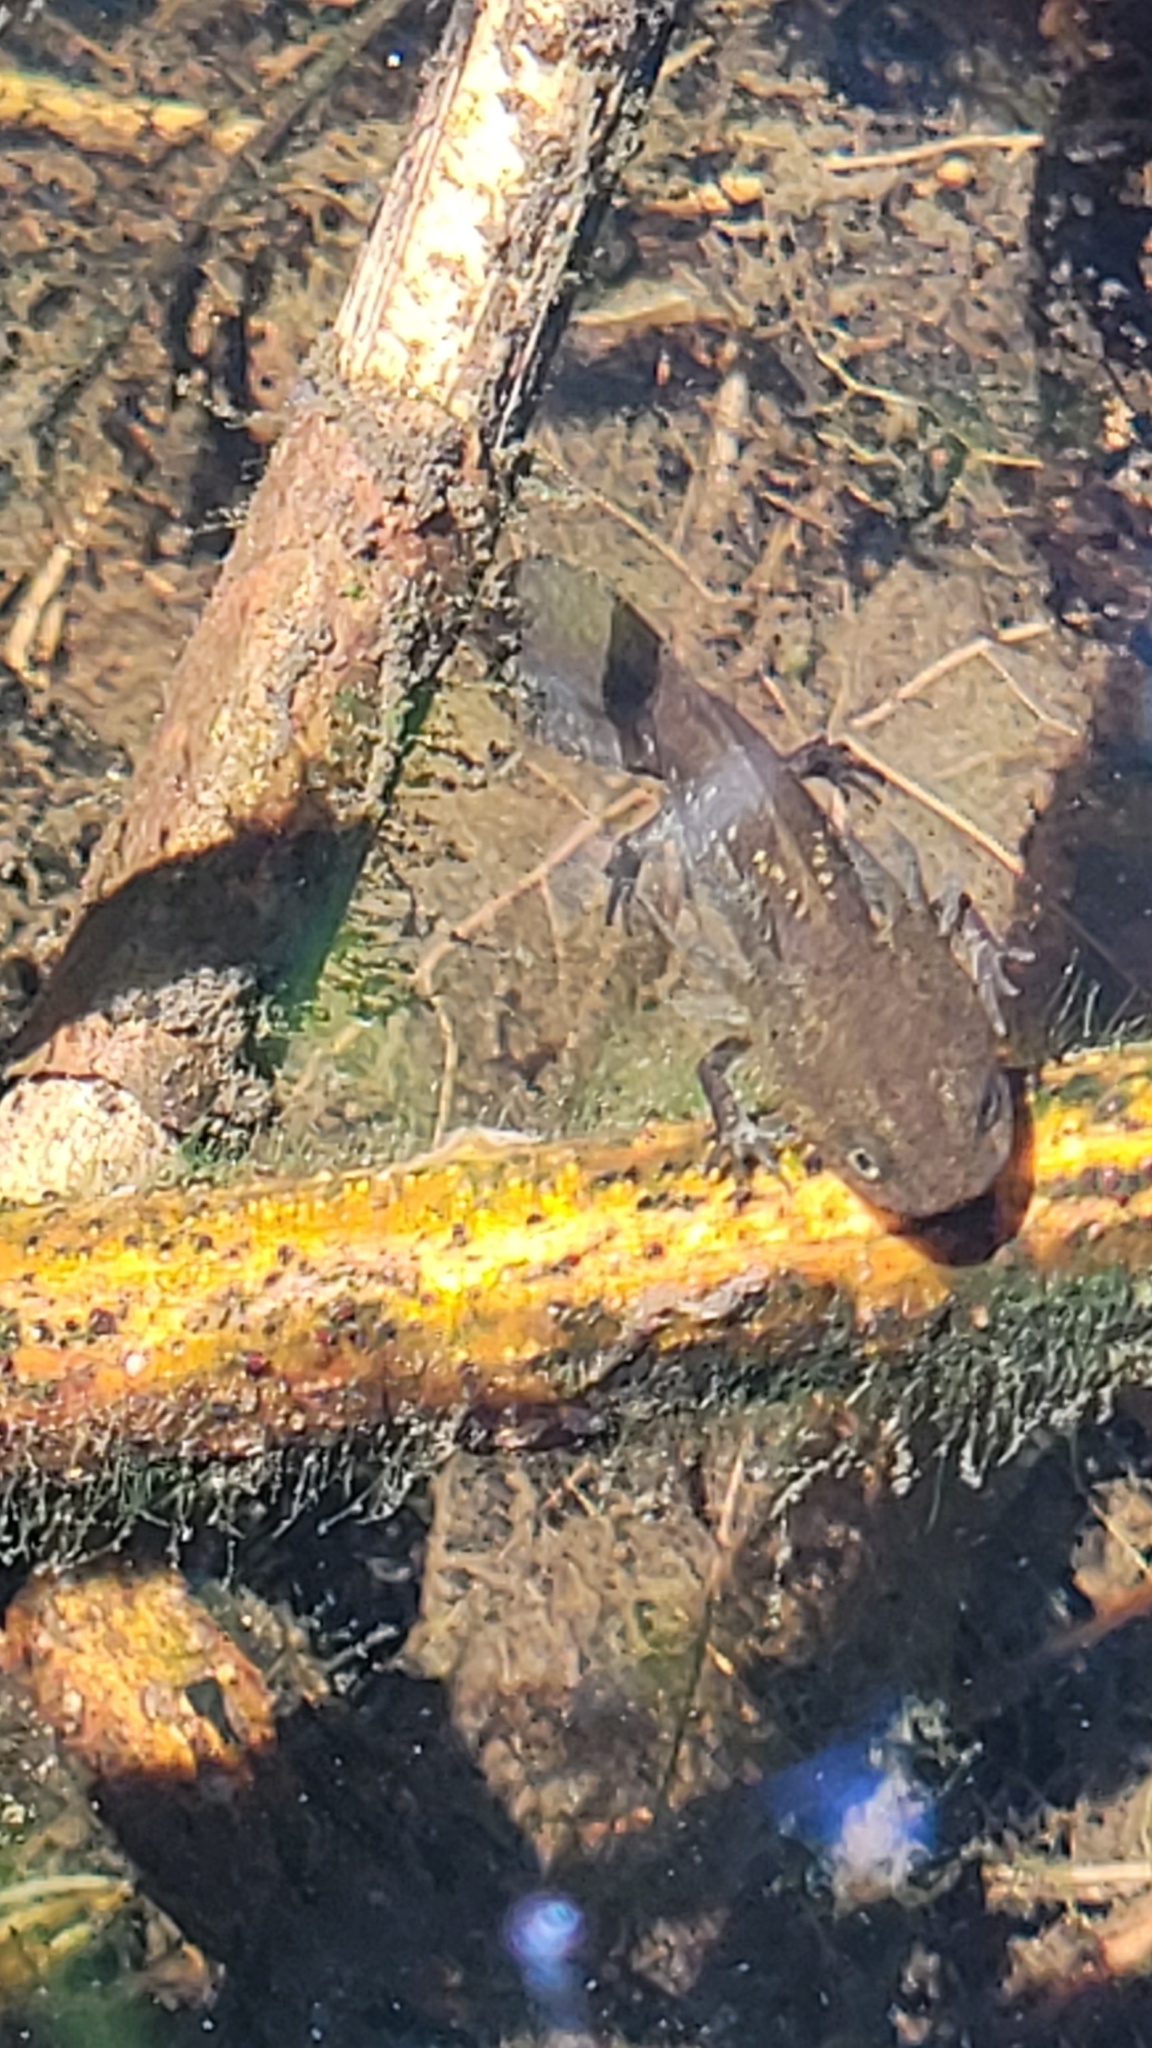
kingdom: Animalia
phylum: Chordata
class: Amphibia
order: Caudata
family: Ambystomatidae
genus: Ambystoma
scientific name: Ambystoma macrodactylum
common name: Long-toed salamander
